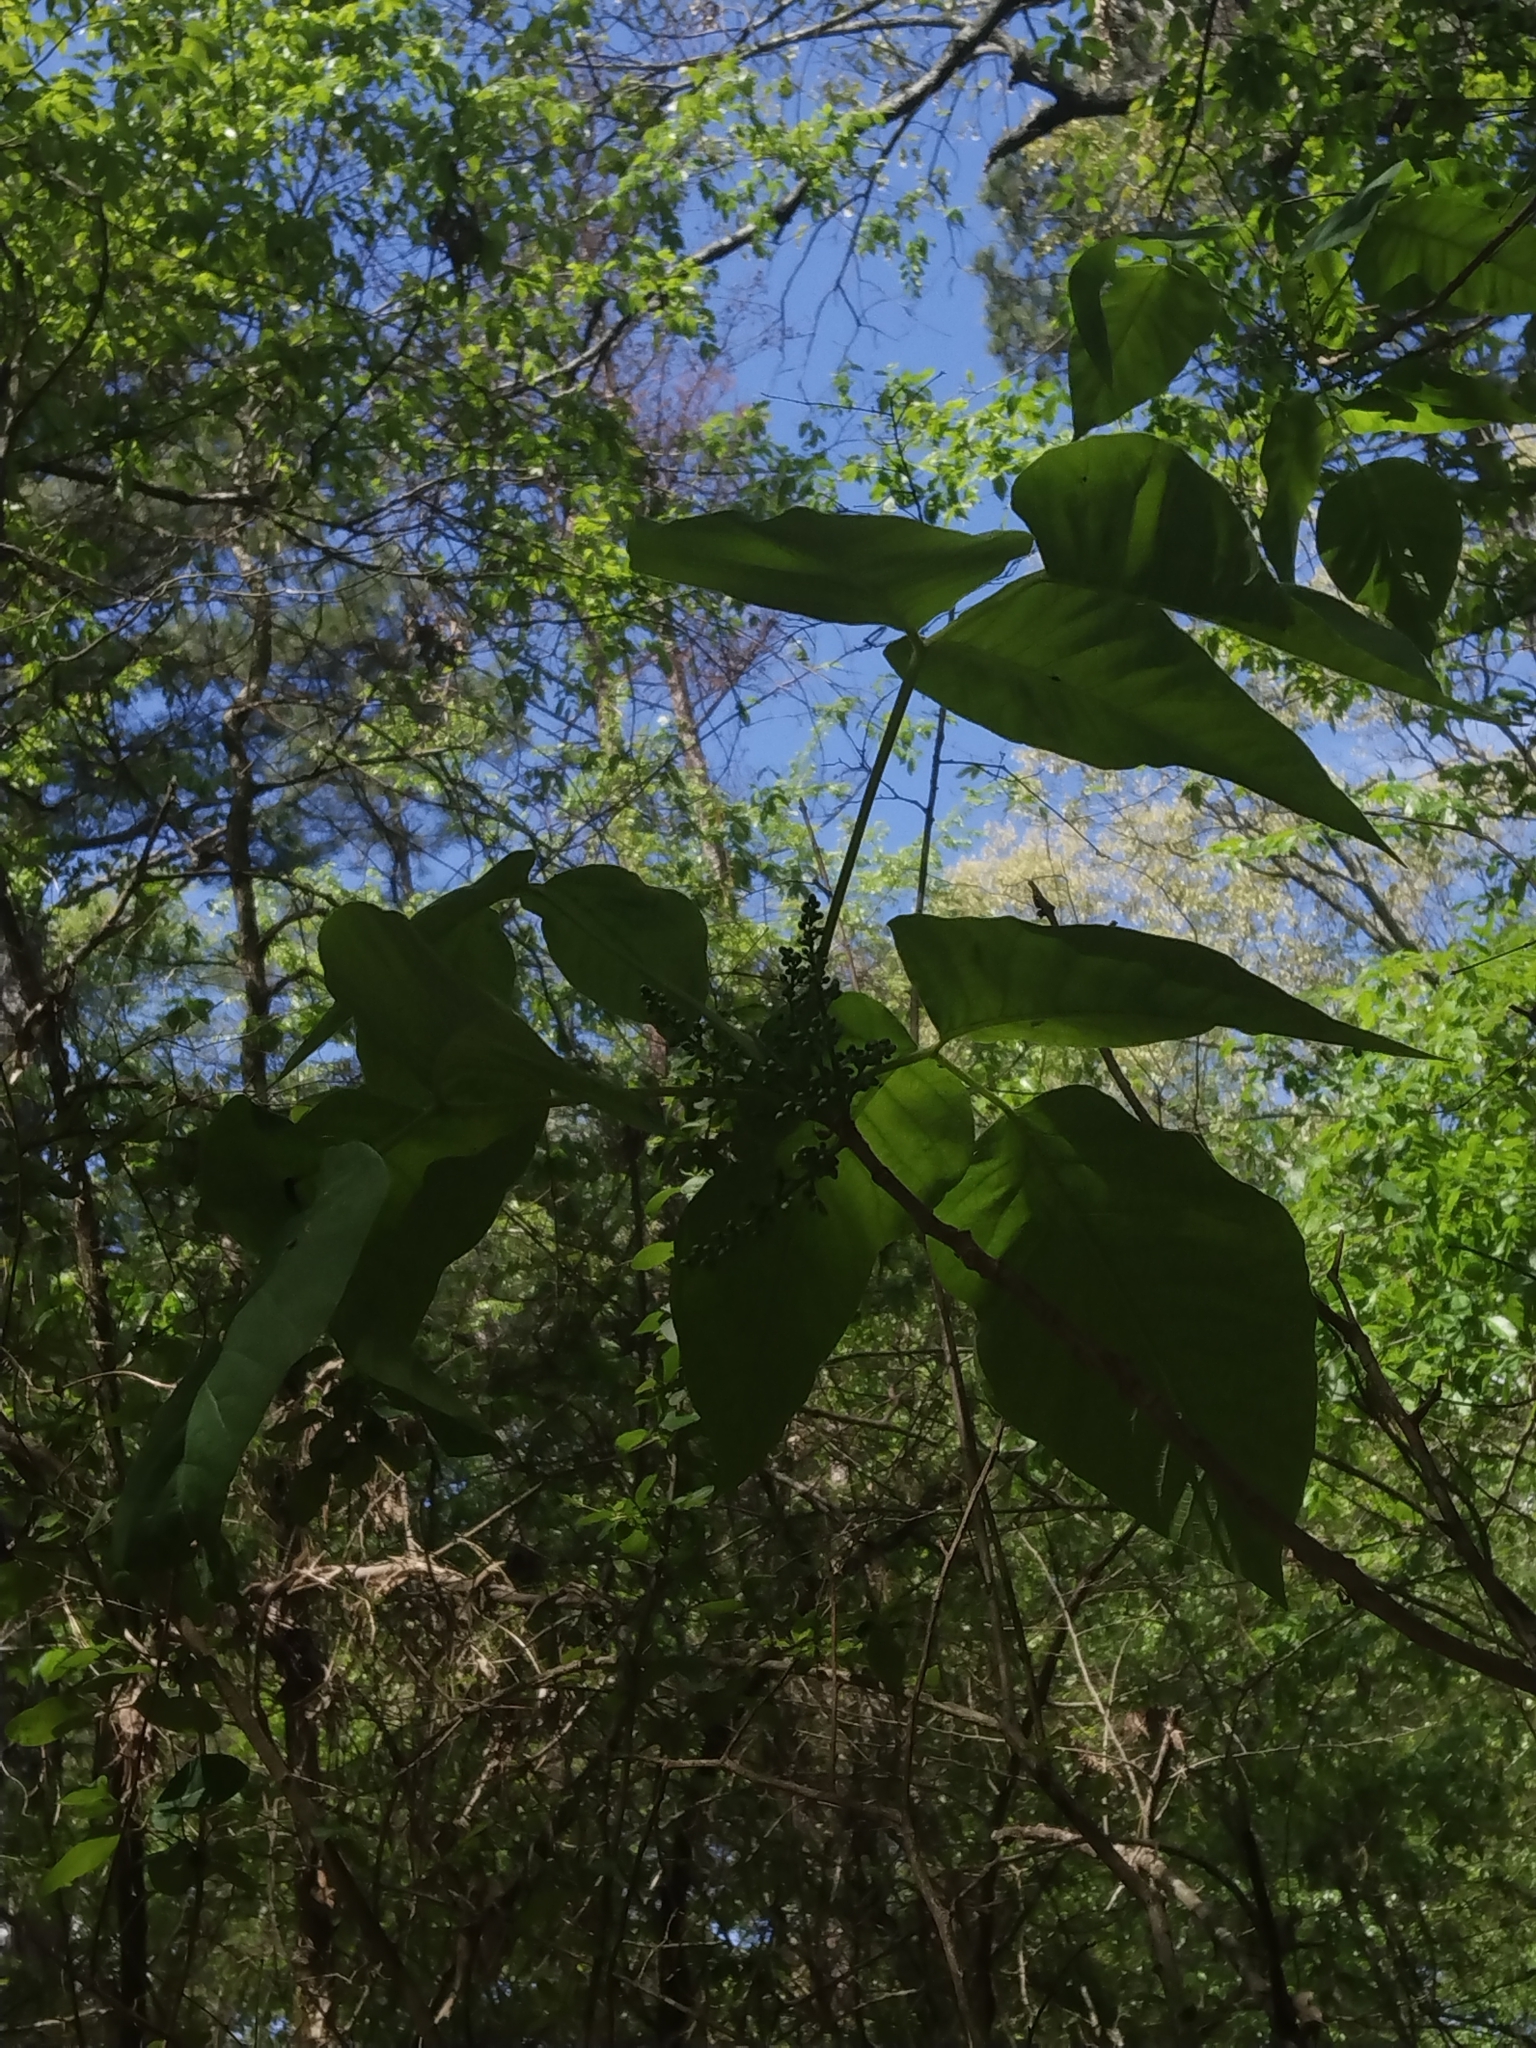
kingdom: Plantae
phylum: Tracheophyta
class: Magnoliopsida
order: Sapindales
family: Anacardiaceae
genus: Toxicodendron
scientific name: Toxicodendron radicans
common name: Poison ivy
